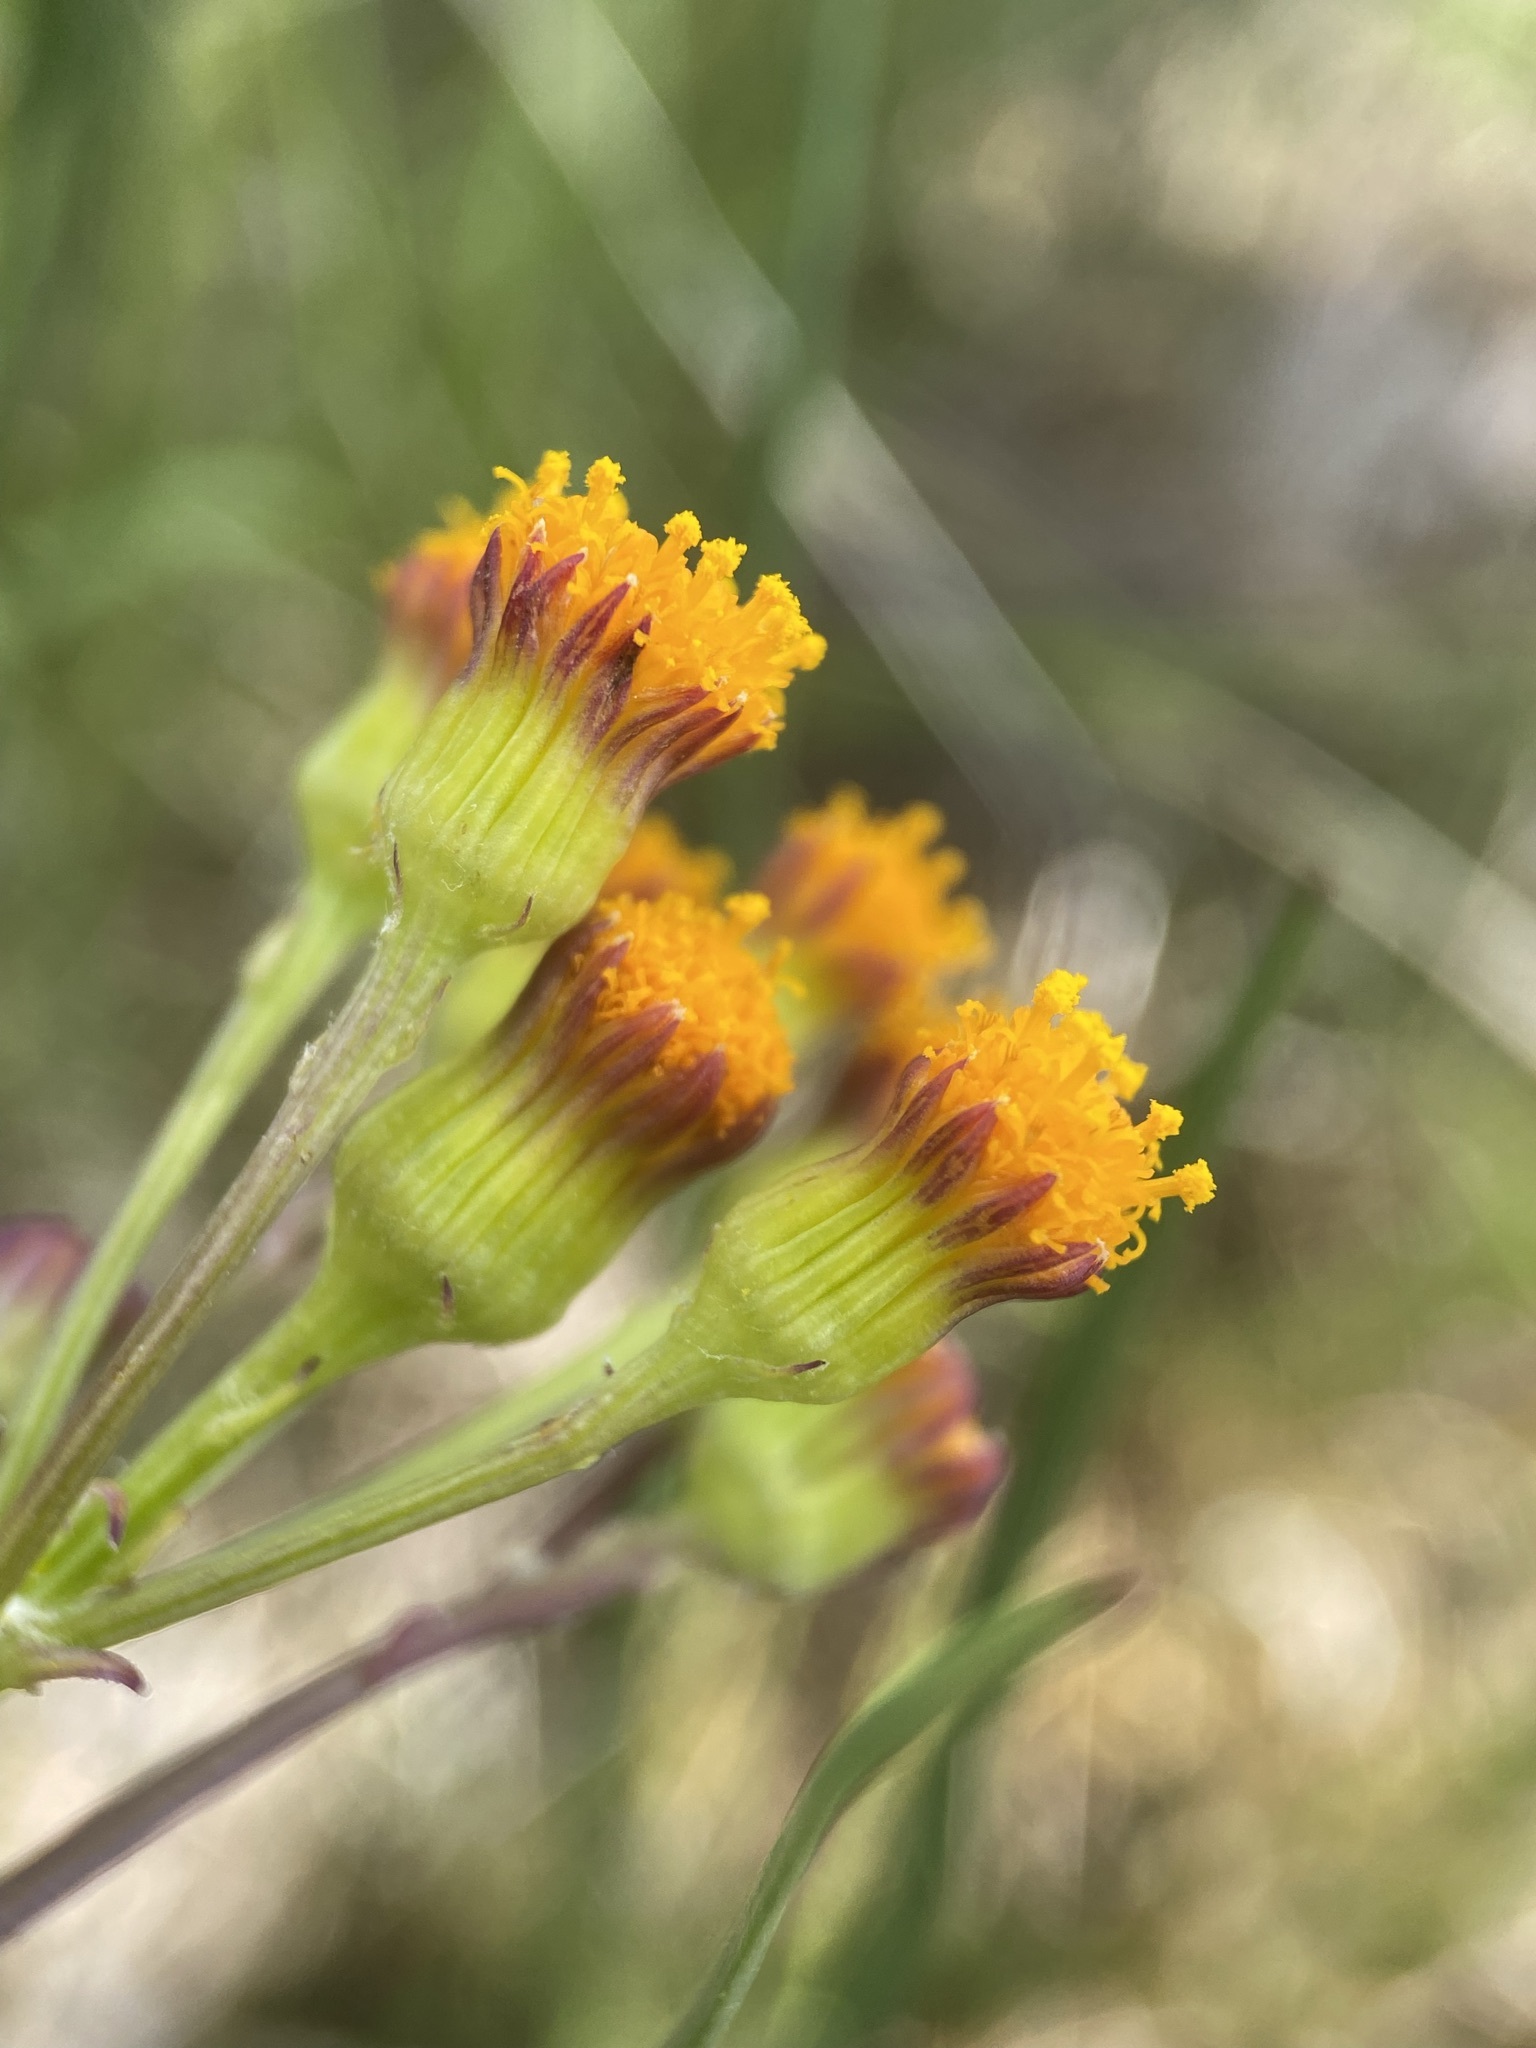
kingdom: Plantae
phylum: Tracheophyta
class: Magnoliopsida
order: Asterales
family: Asteraceae
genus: Packera
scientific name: Packera debilis
